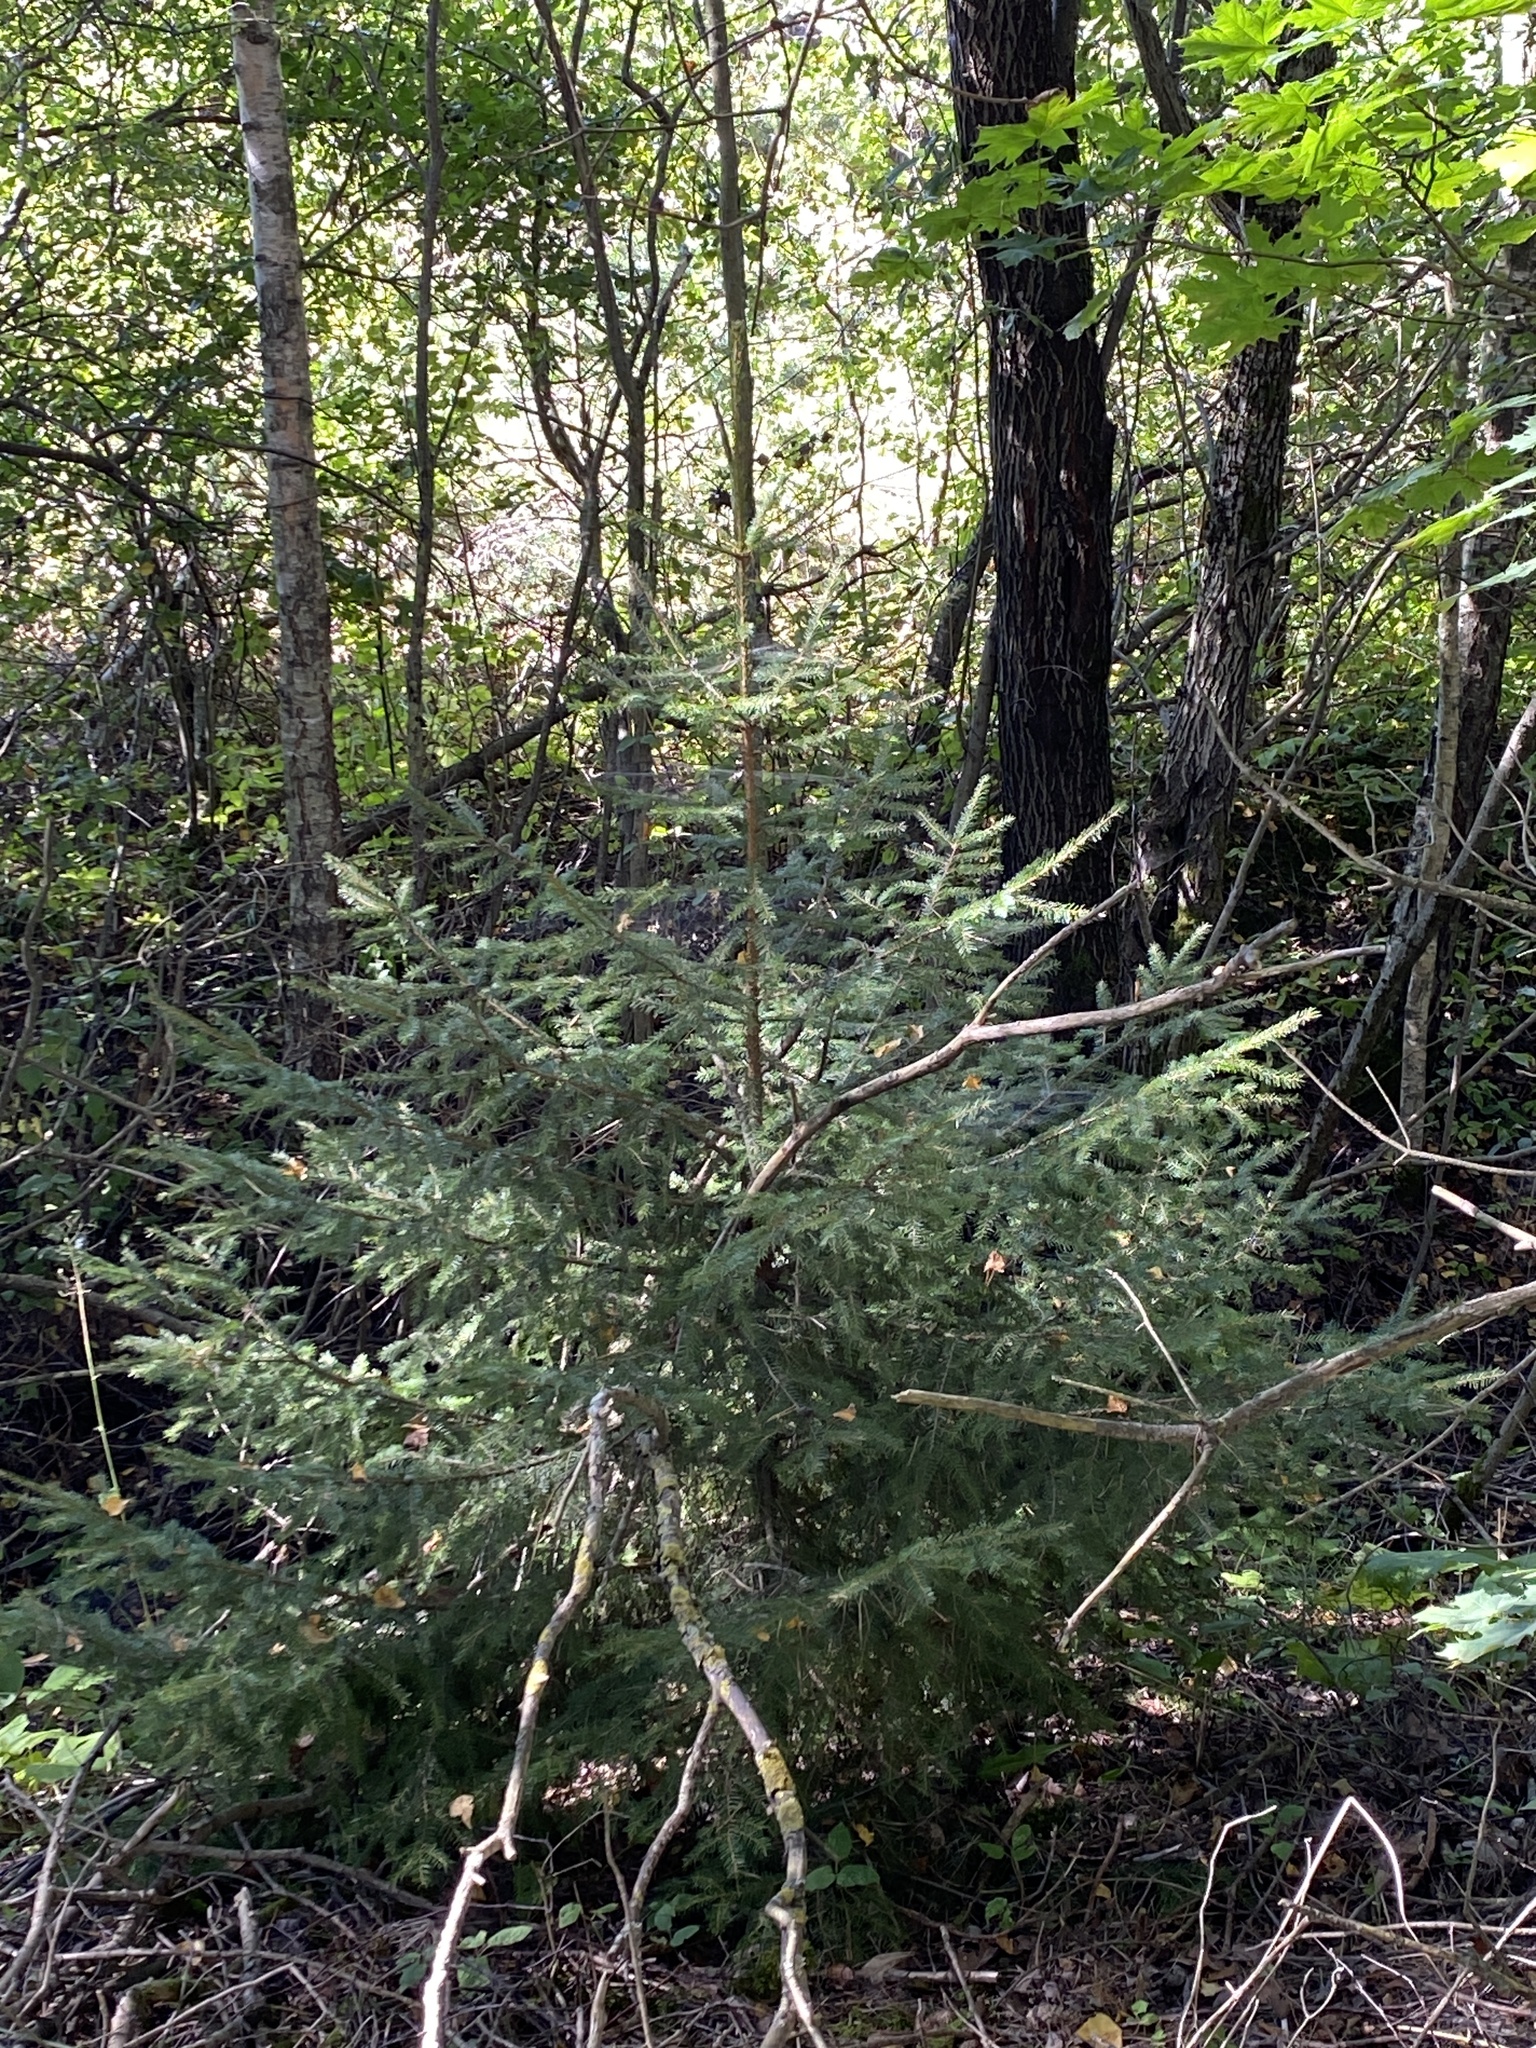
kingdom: Plantae
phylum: Tracheophyta
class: Pinopsida
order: Pinales
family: Pinaceae
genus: Picea
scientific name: Picea abies
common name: Norway spruce
